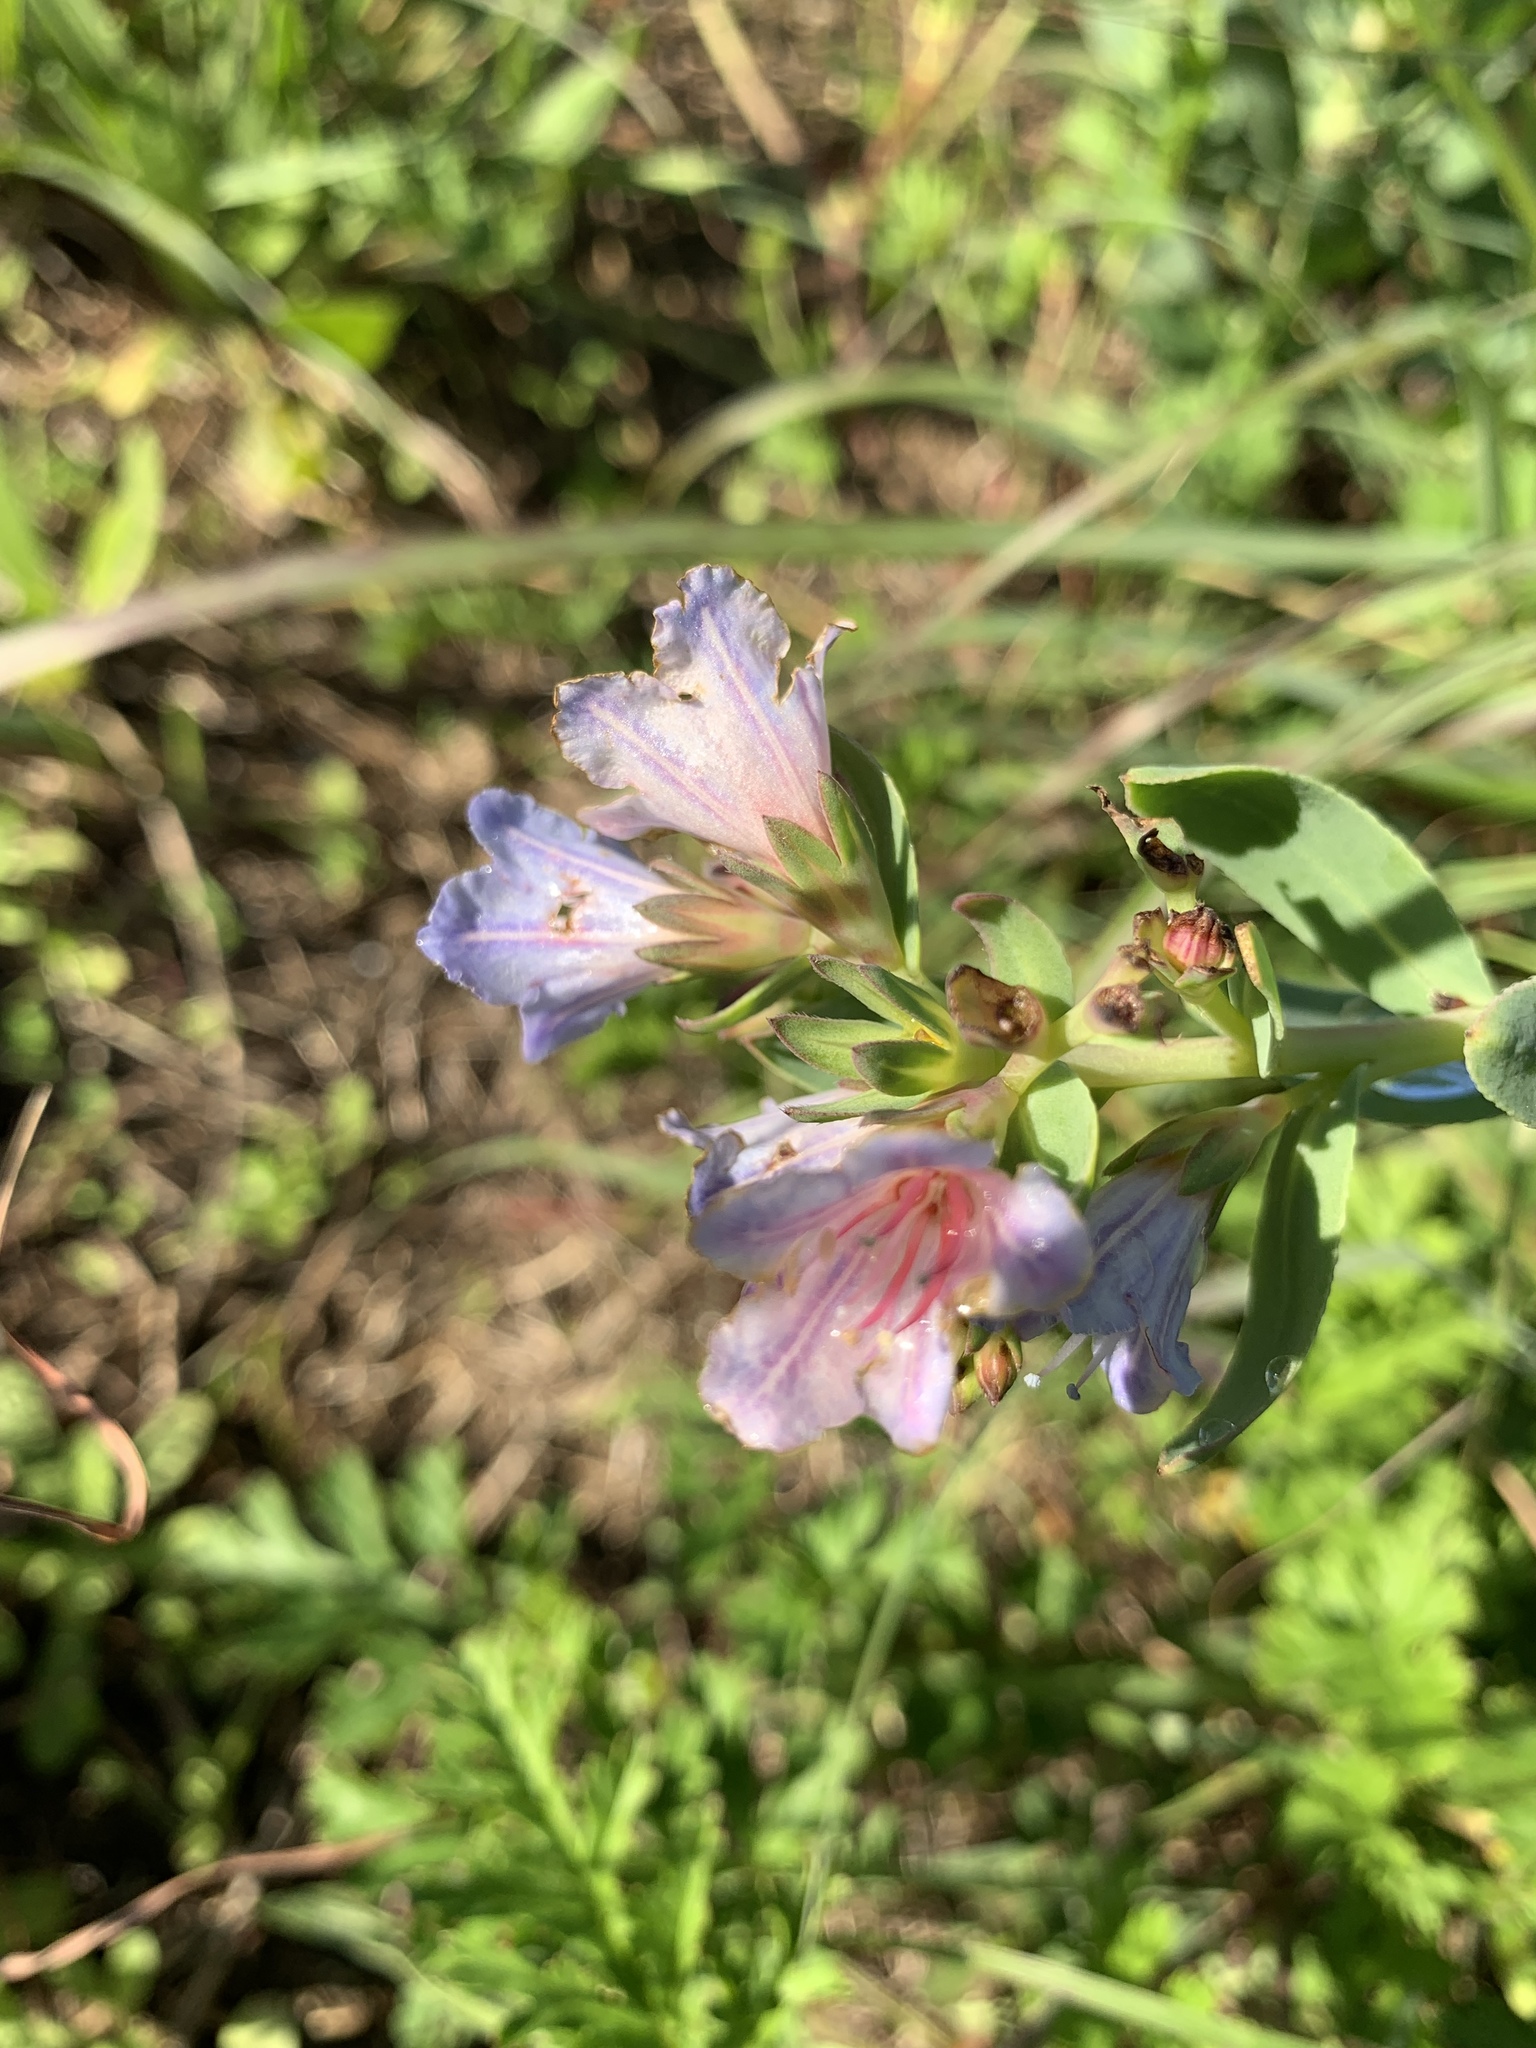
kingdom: Plantae
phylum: Tracheophyta
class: Magnoliopsida
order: Boraginales
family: Boraginaceae
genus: Lobostemon
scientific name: Lobostemon glaucophyllus
